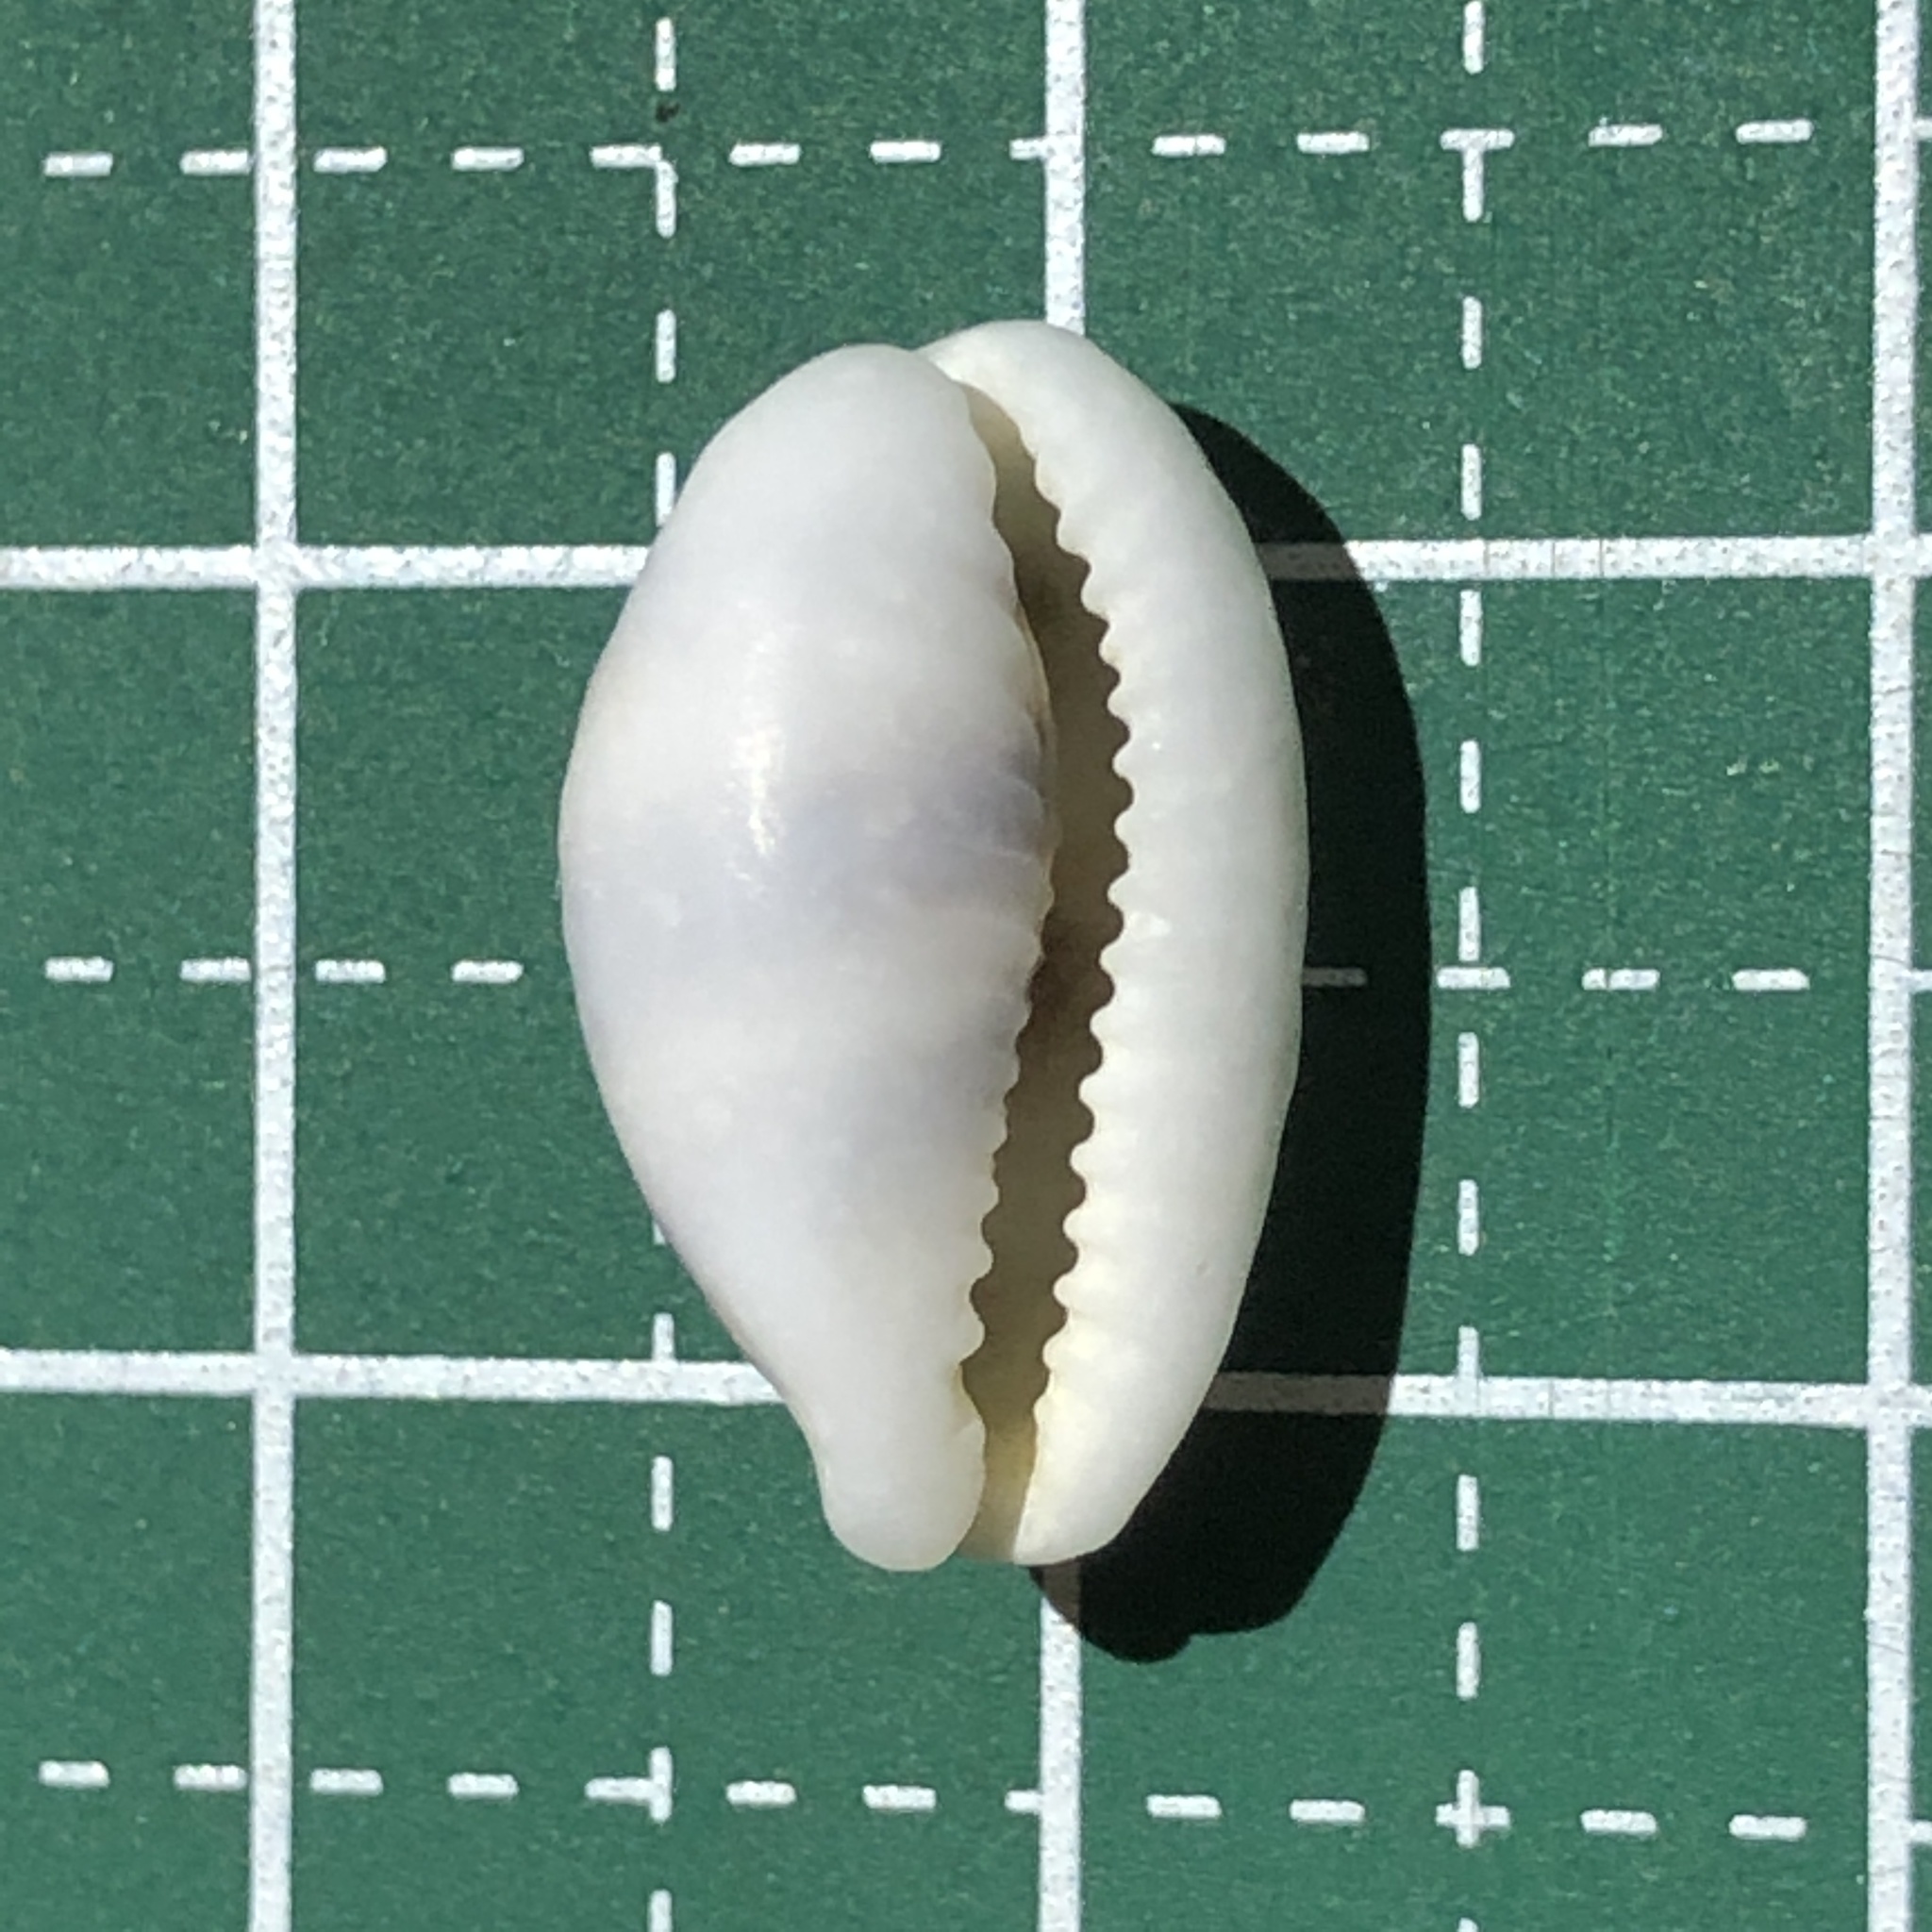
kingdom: Animalia
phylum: Mollusca
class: Gastropoda
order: Littorinimorpha
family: Cypraeidae
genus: Palmadusta
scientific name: Palmadusta asellus
